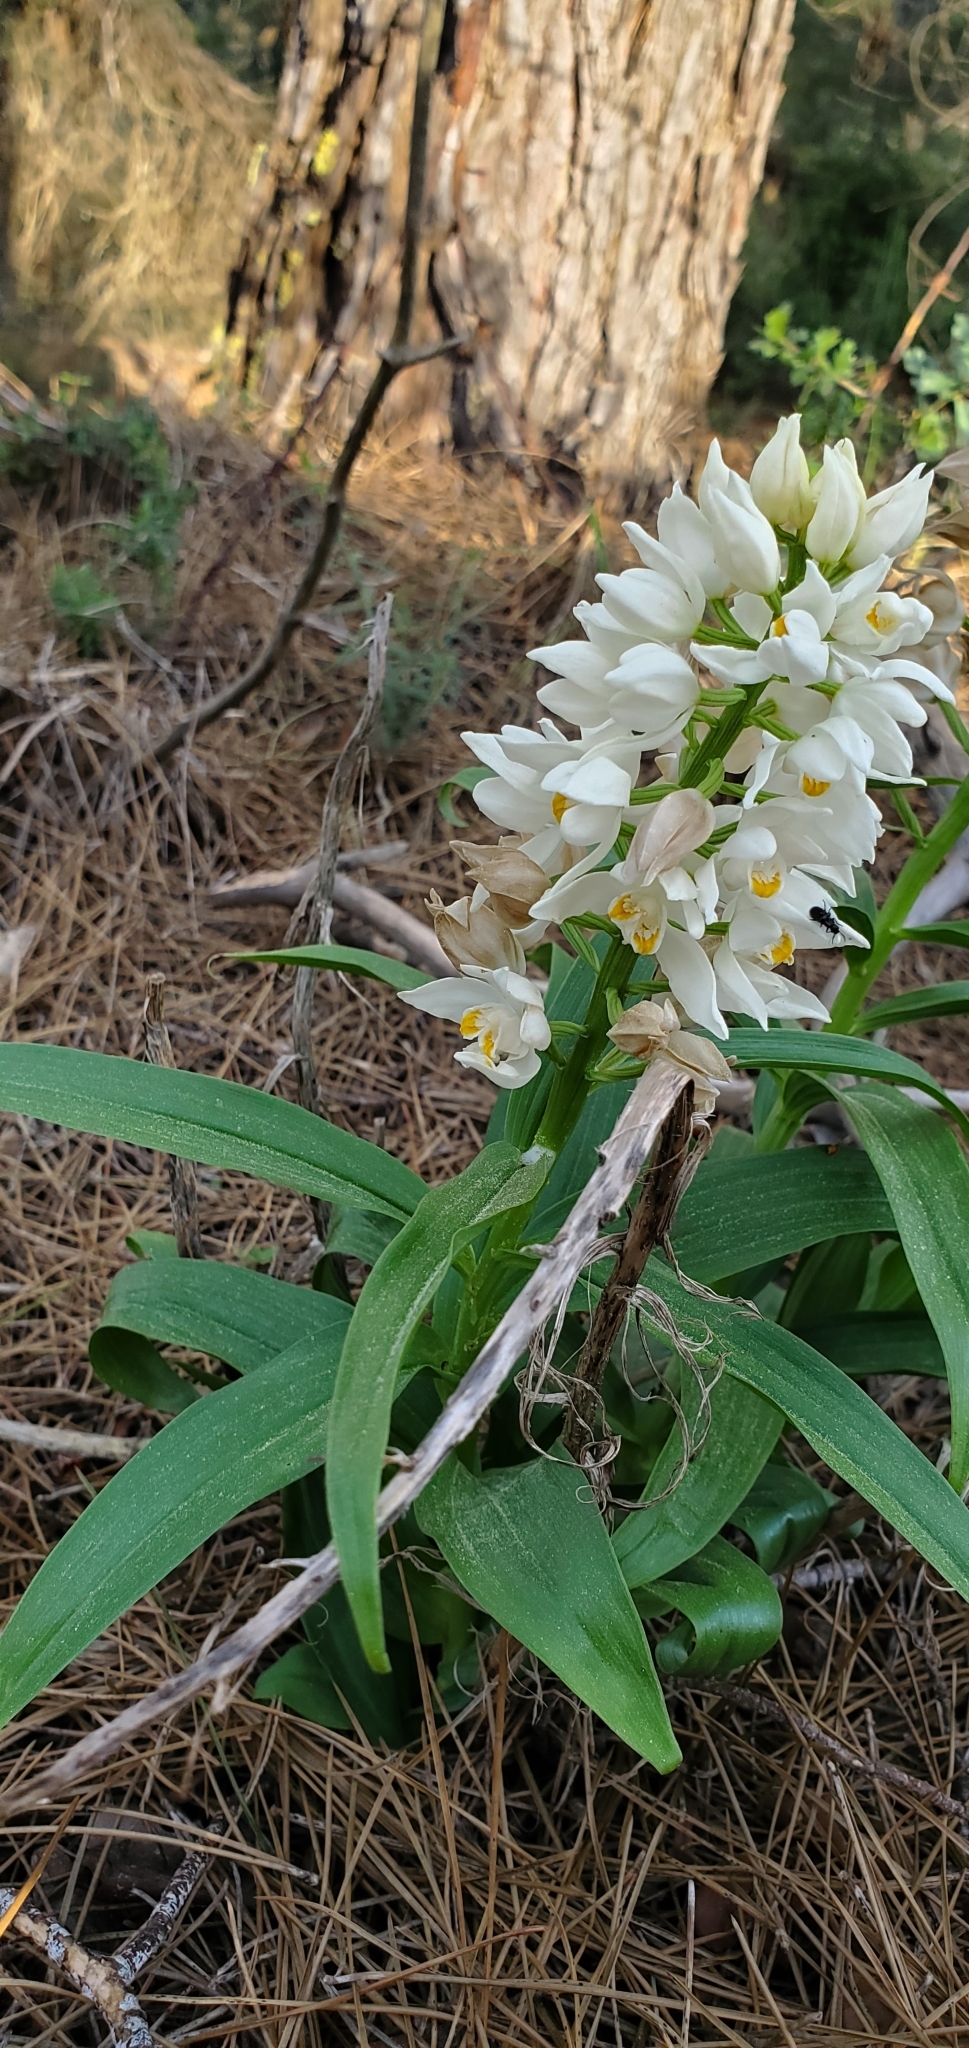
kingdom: Plantae
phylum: Tracheophyta
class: Liliopsida
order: Asparagales
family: Orchidaceae
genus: Cephalanthera
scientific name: Cephalanthera longifolia
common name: Narrow-leaved helleborine
